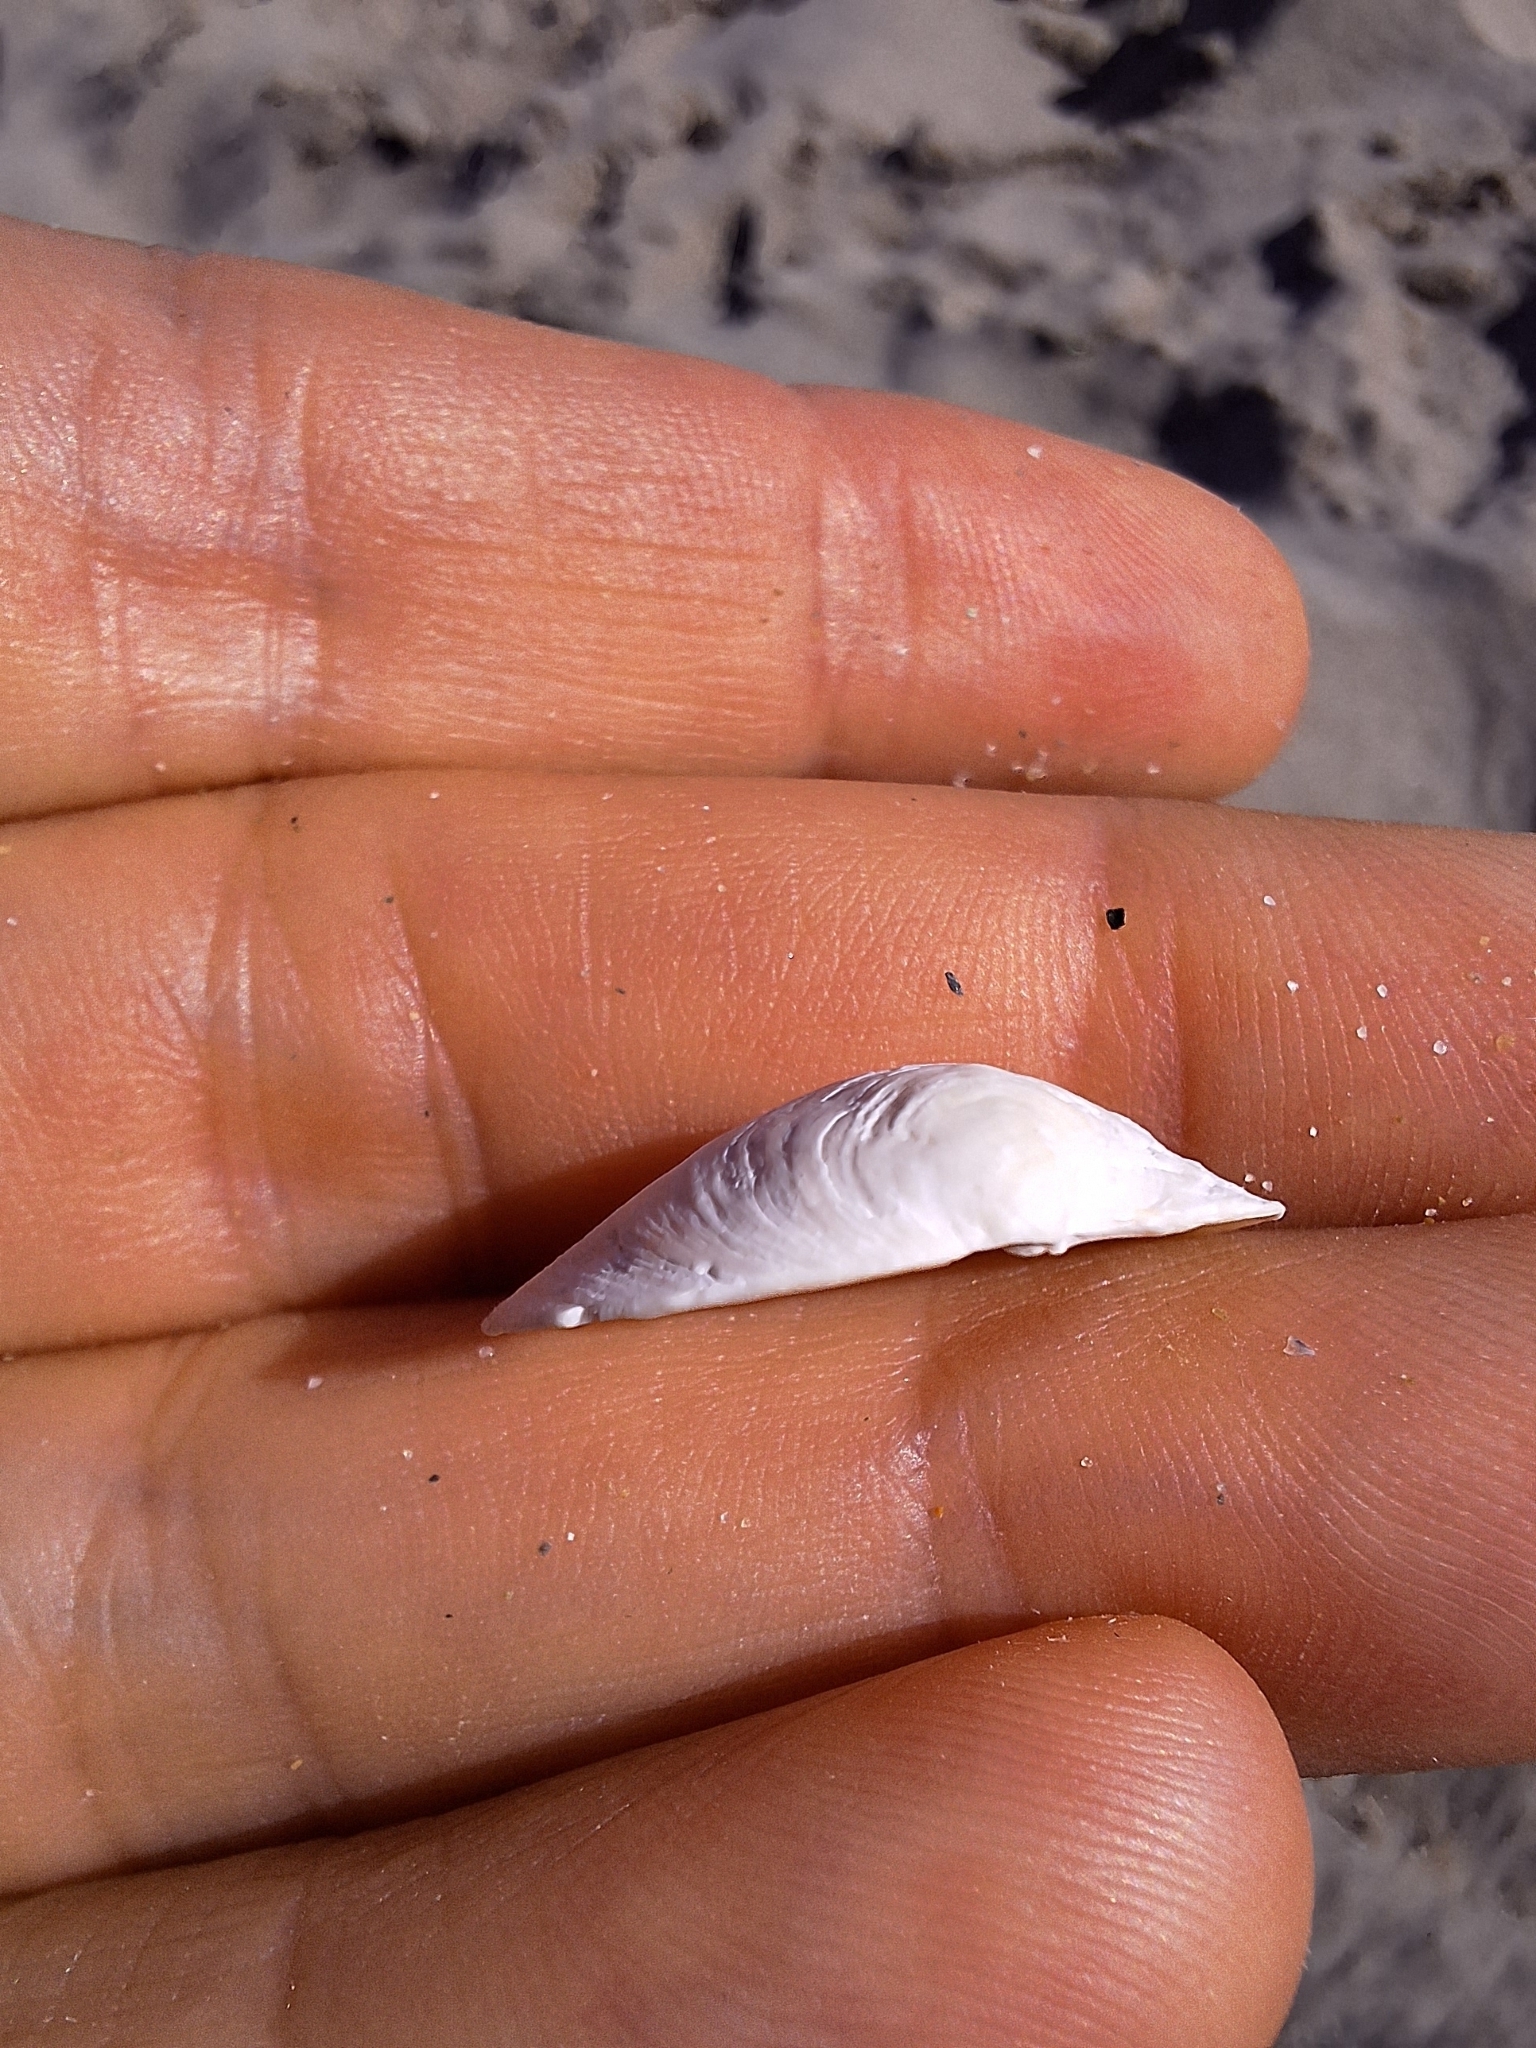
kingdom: Animalia
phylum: Mollusca
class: Bivalvia
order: Lucinida
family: Lucinidae
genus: Loripes
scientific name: Loripes orbiculatus
